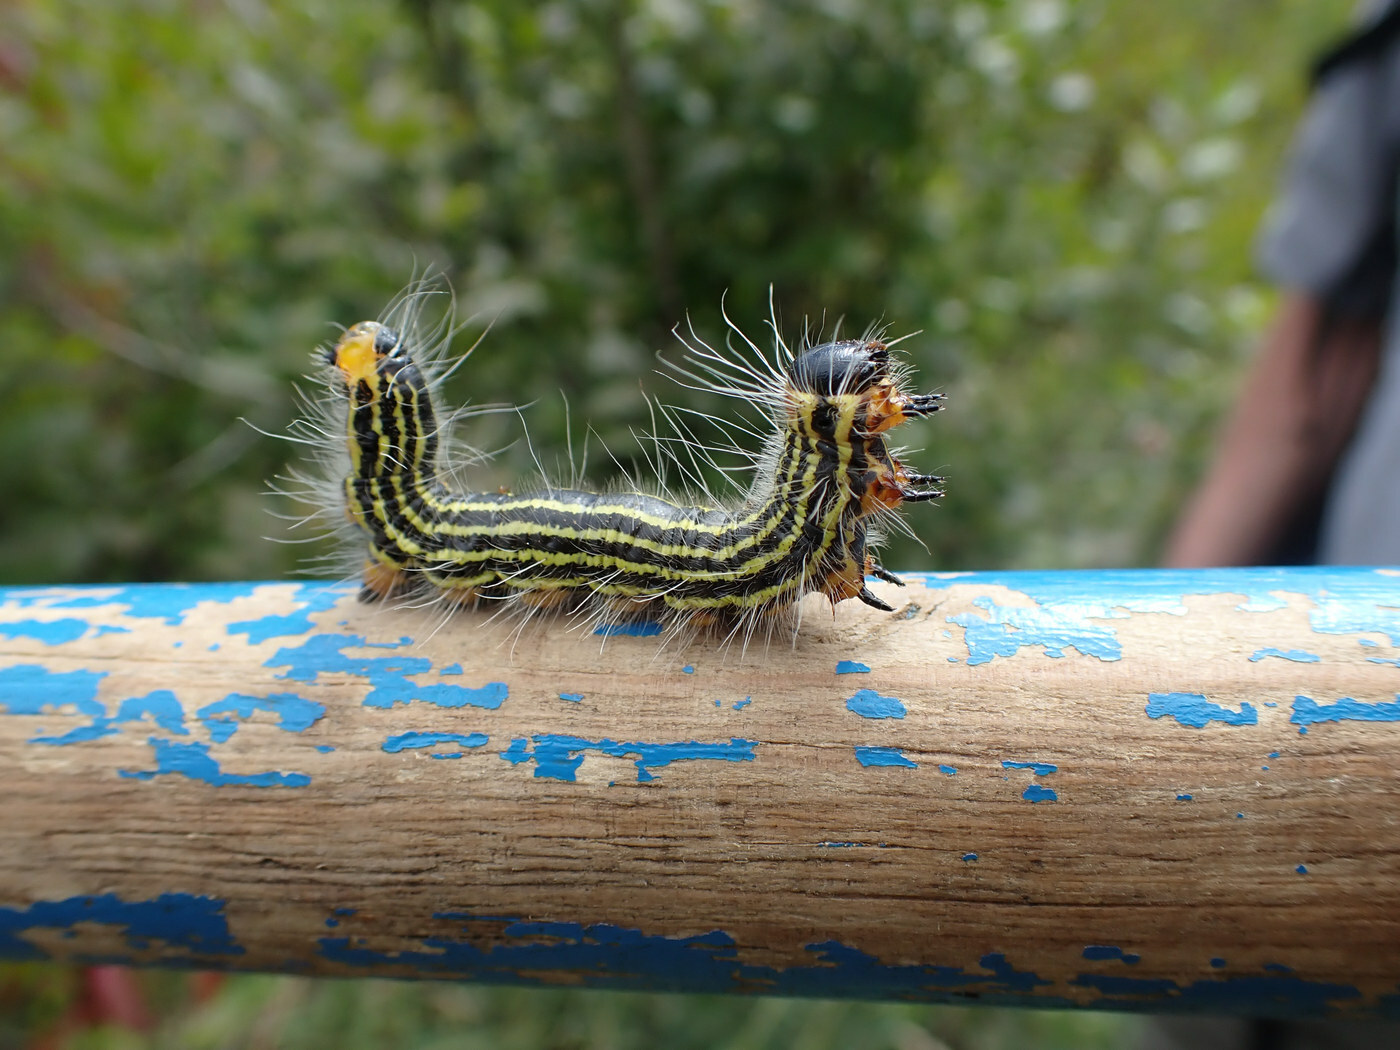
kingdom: Animalia
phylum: Arthropoda
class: Insecta
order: Lepidoptera
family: Notodontidae
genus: Datana
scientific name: Datana ministra
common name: Yellow-necked caterpillar moth
